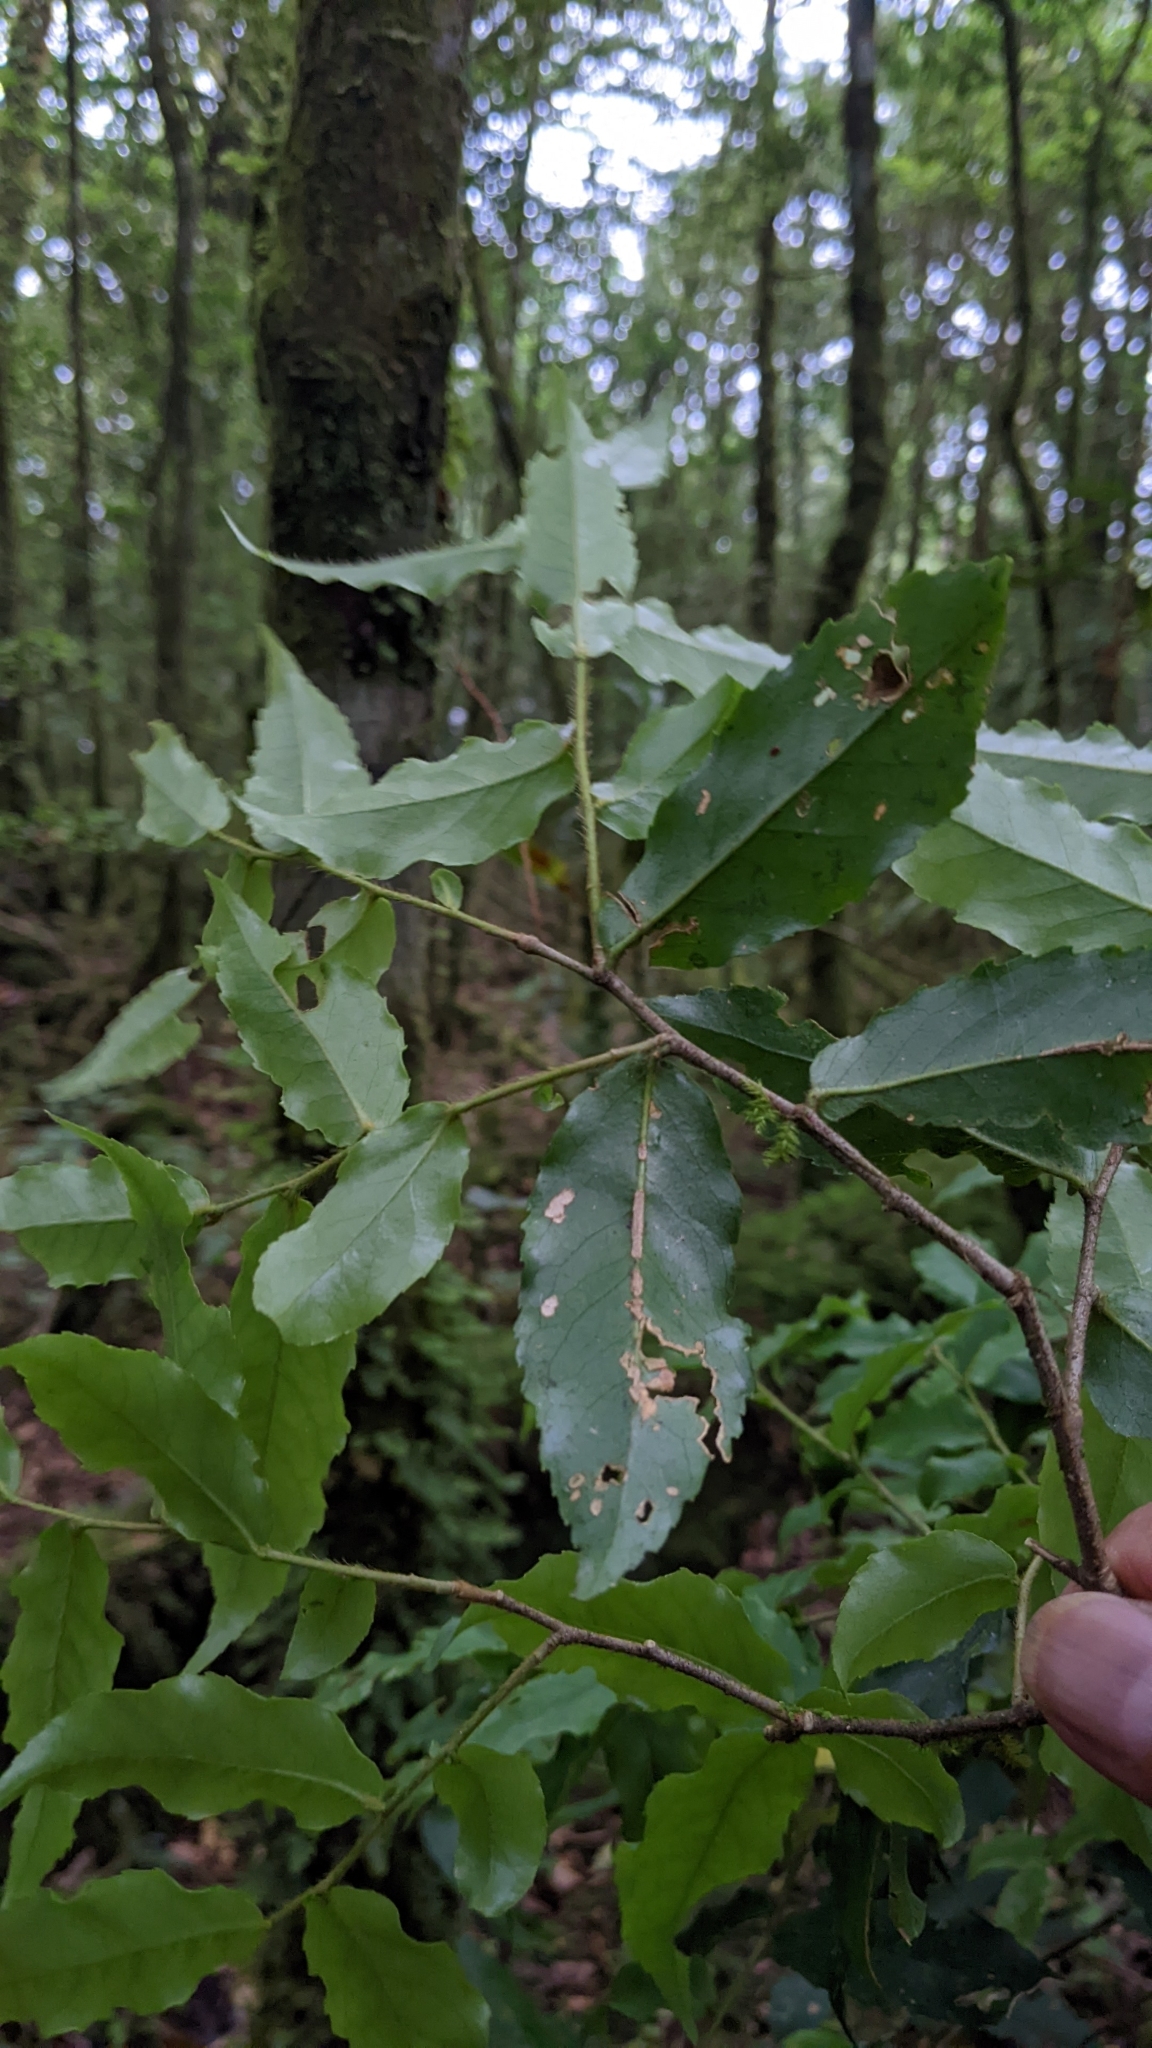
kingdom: Plantae
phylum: Tracheophyta
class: Magnoliopsida
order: Ericales
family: Symplocaceae
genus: Symplocos
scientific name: Symplocos lancifolia
